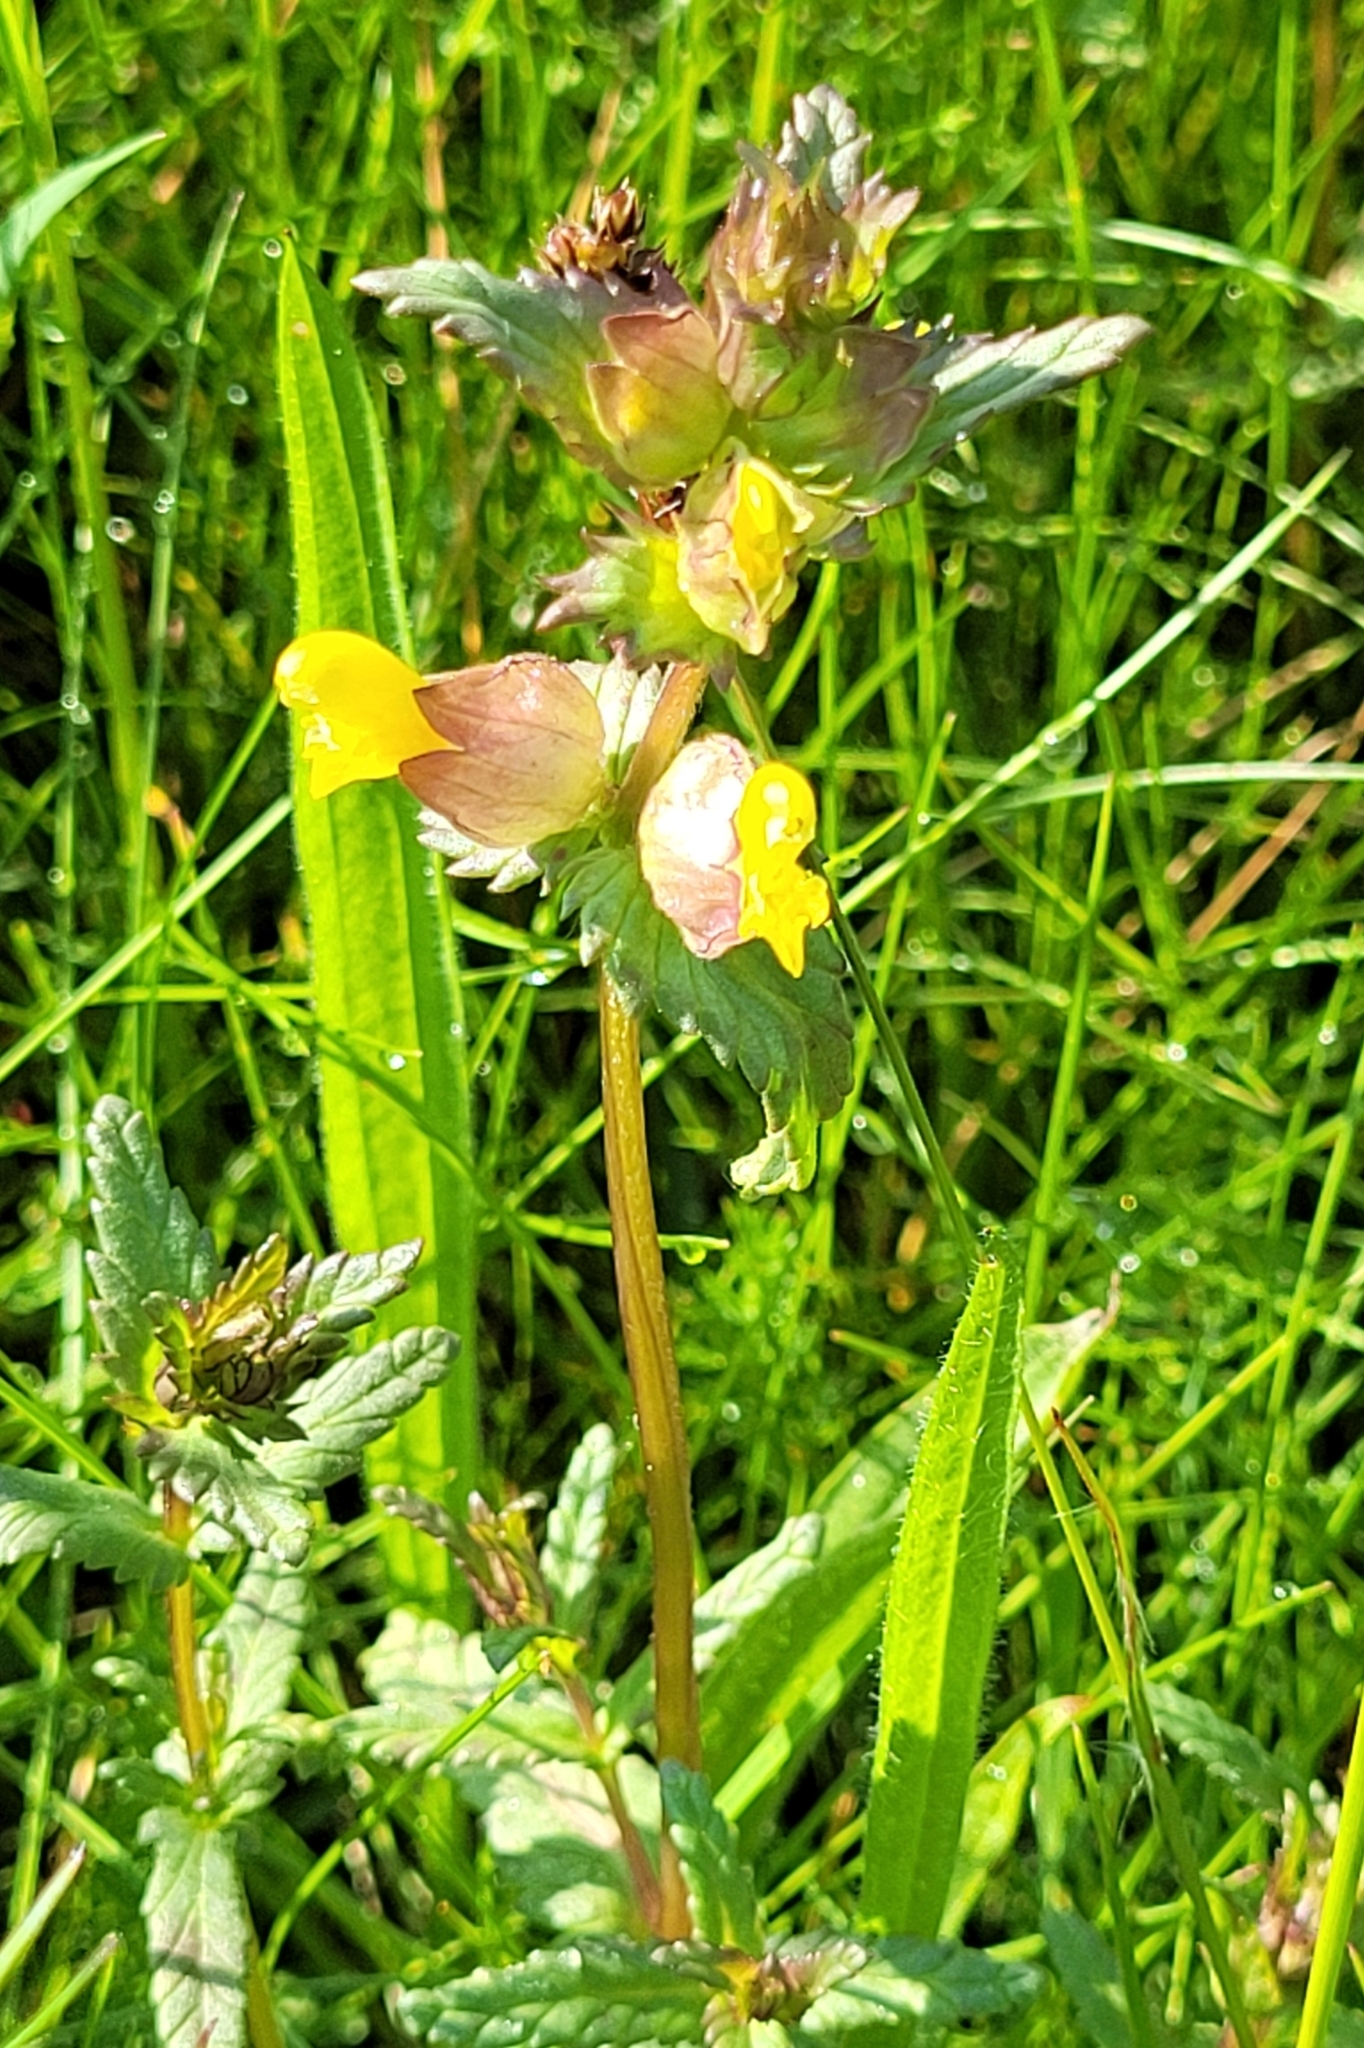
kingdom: Plantae
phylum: Tracheophyta
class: Magnoliopsida
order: Lamiales
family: Orobanchaceae
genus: Rhinanthus
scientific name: Rhinanthus minor
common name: Yellow-rattle
